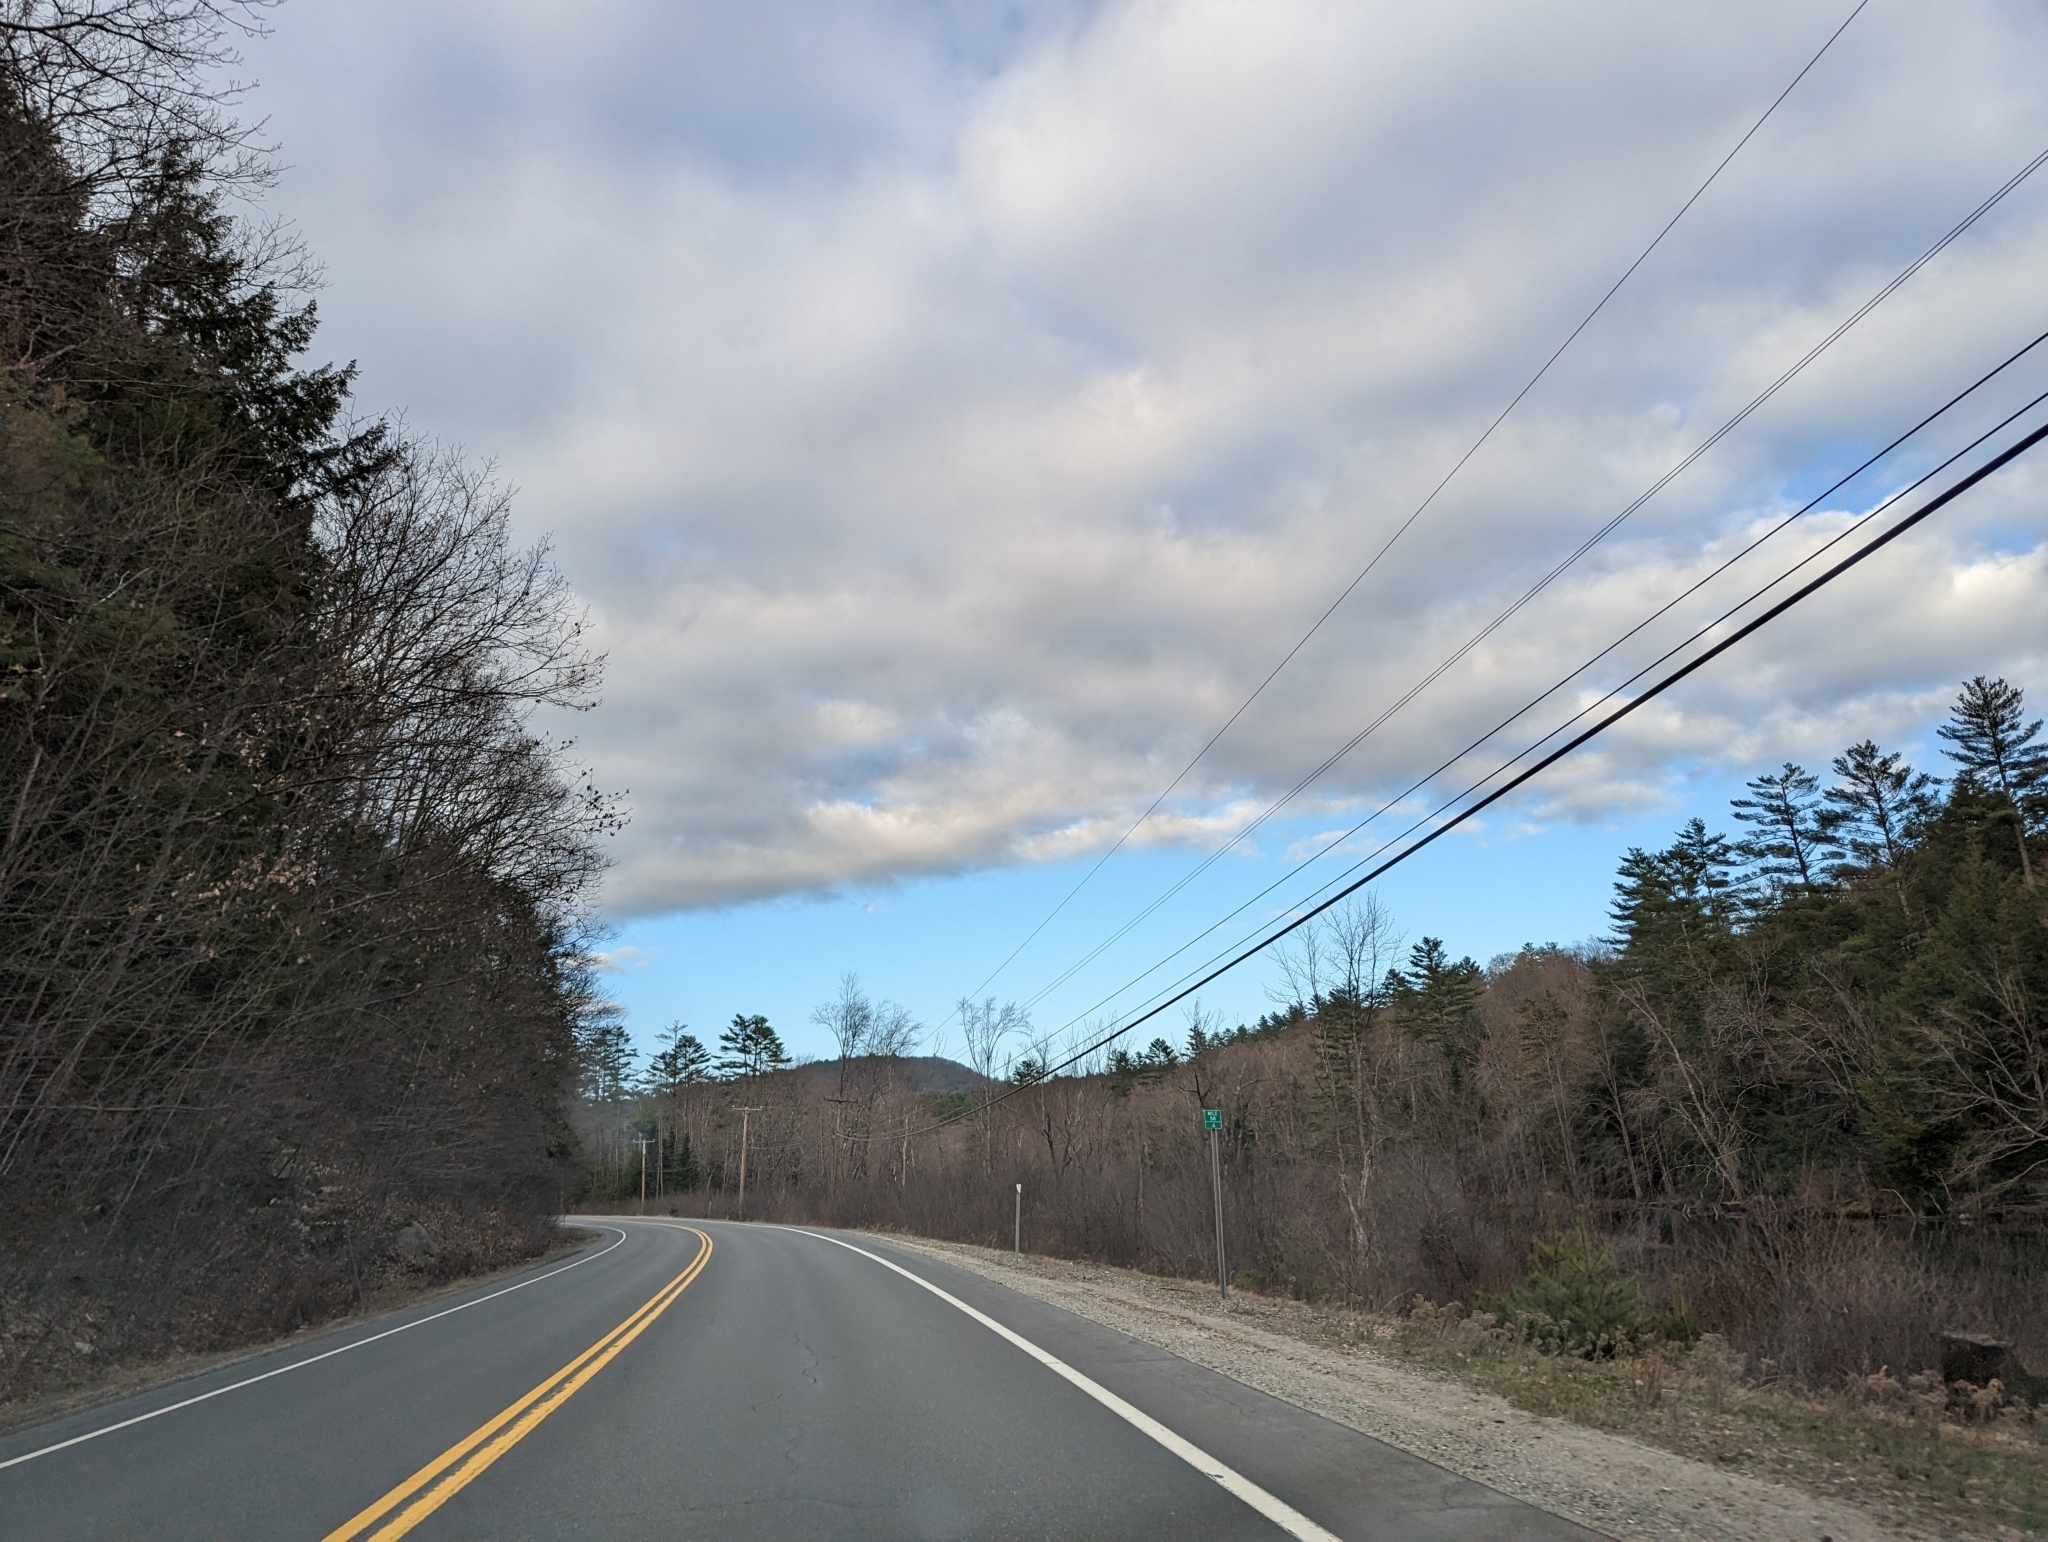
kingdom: Plantae
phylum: Tracheophyta
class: Pinopsida
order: Pinales
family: Pinaceae
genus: Pinus
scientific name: Pinus strobus
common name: Weymouth pine
